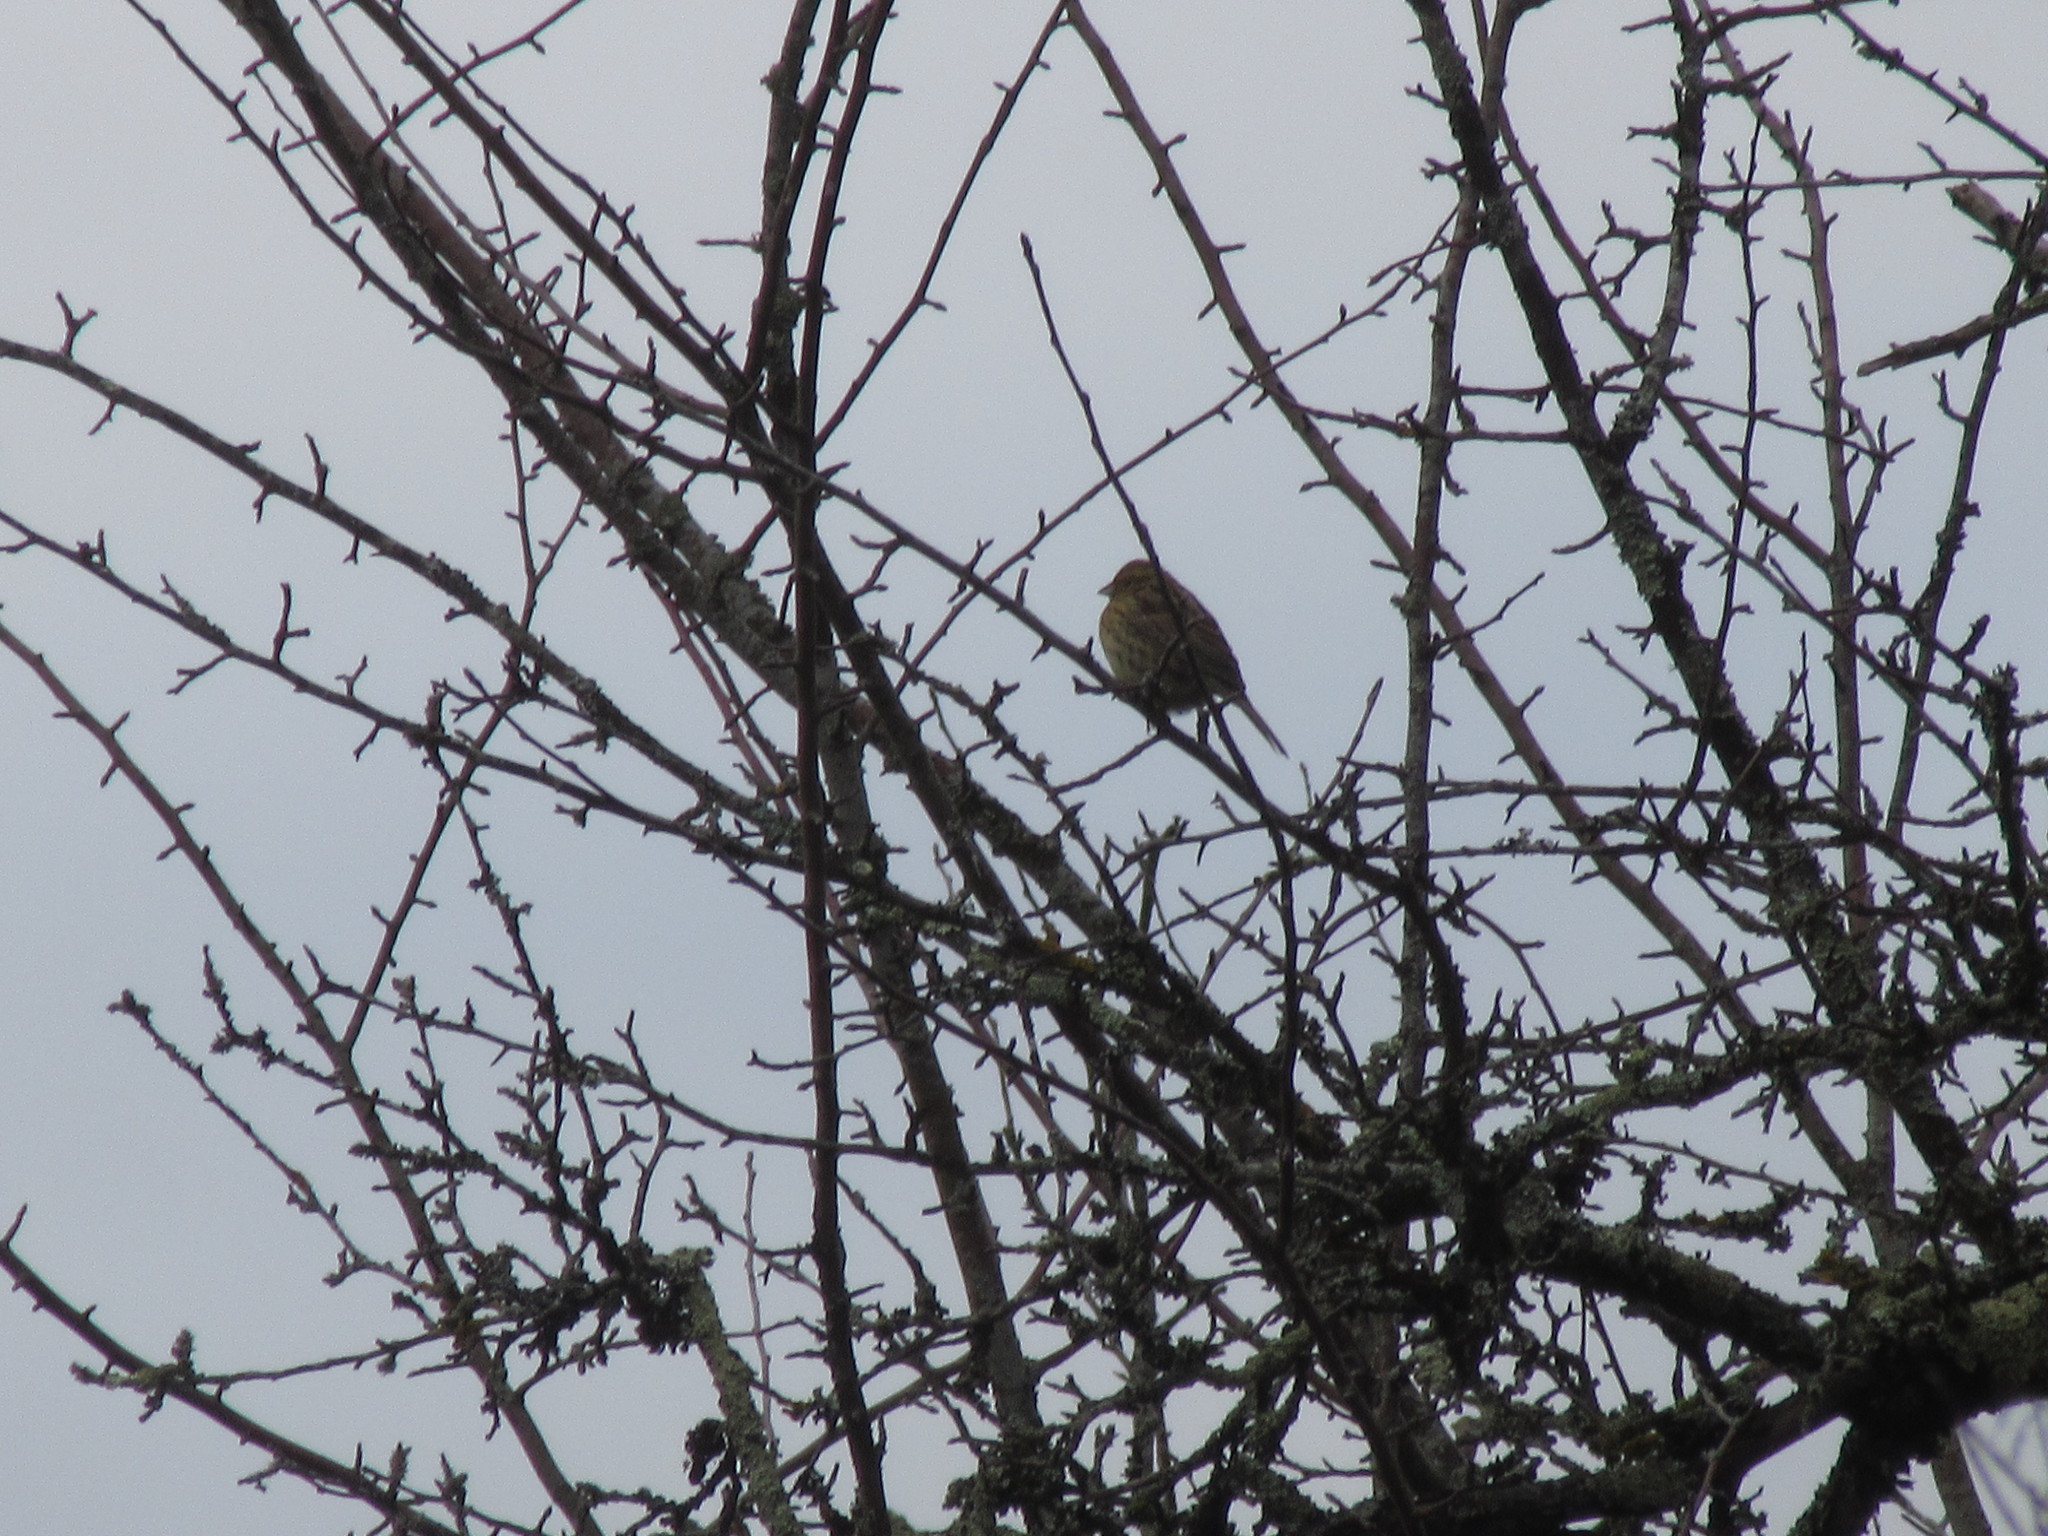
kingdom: Animalia
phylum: Chordata
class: Aves
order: Passeriformes
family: Emberizidae
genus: Emberiza
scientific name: Emberiza cirlus
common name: Cirl bunting
